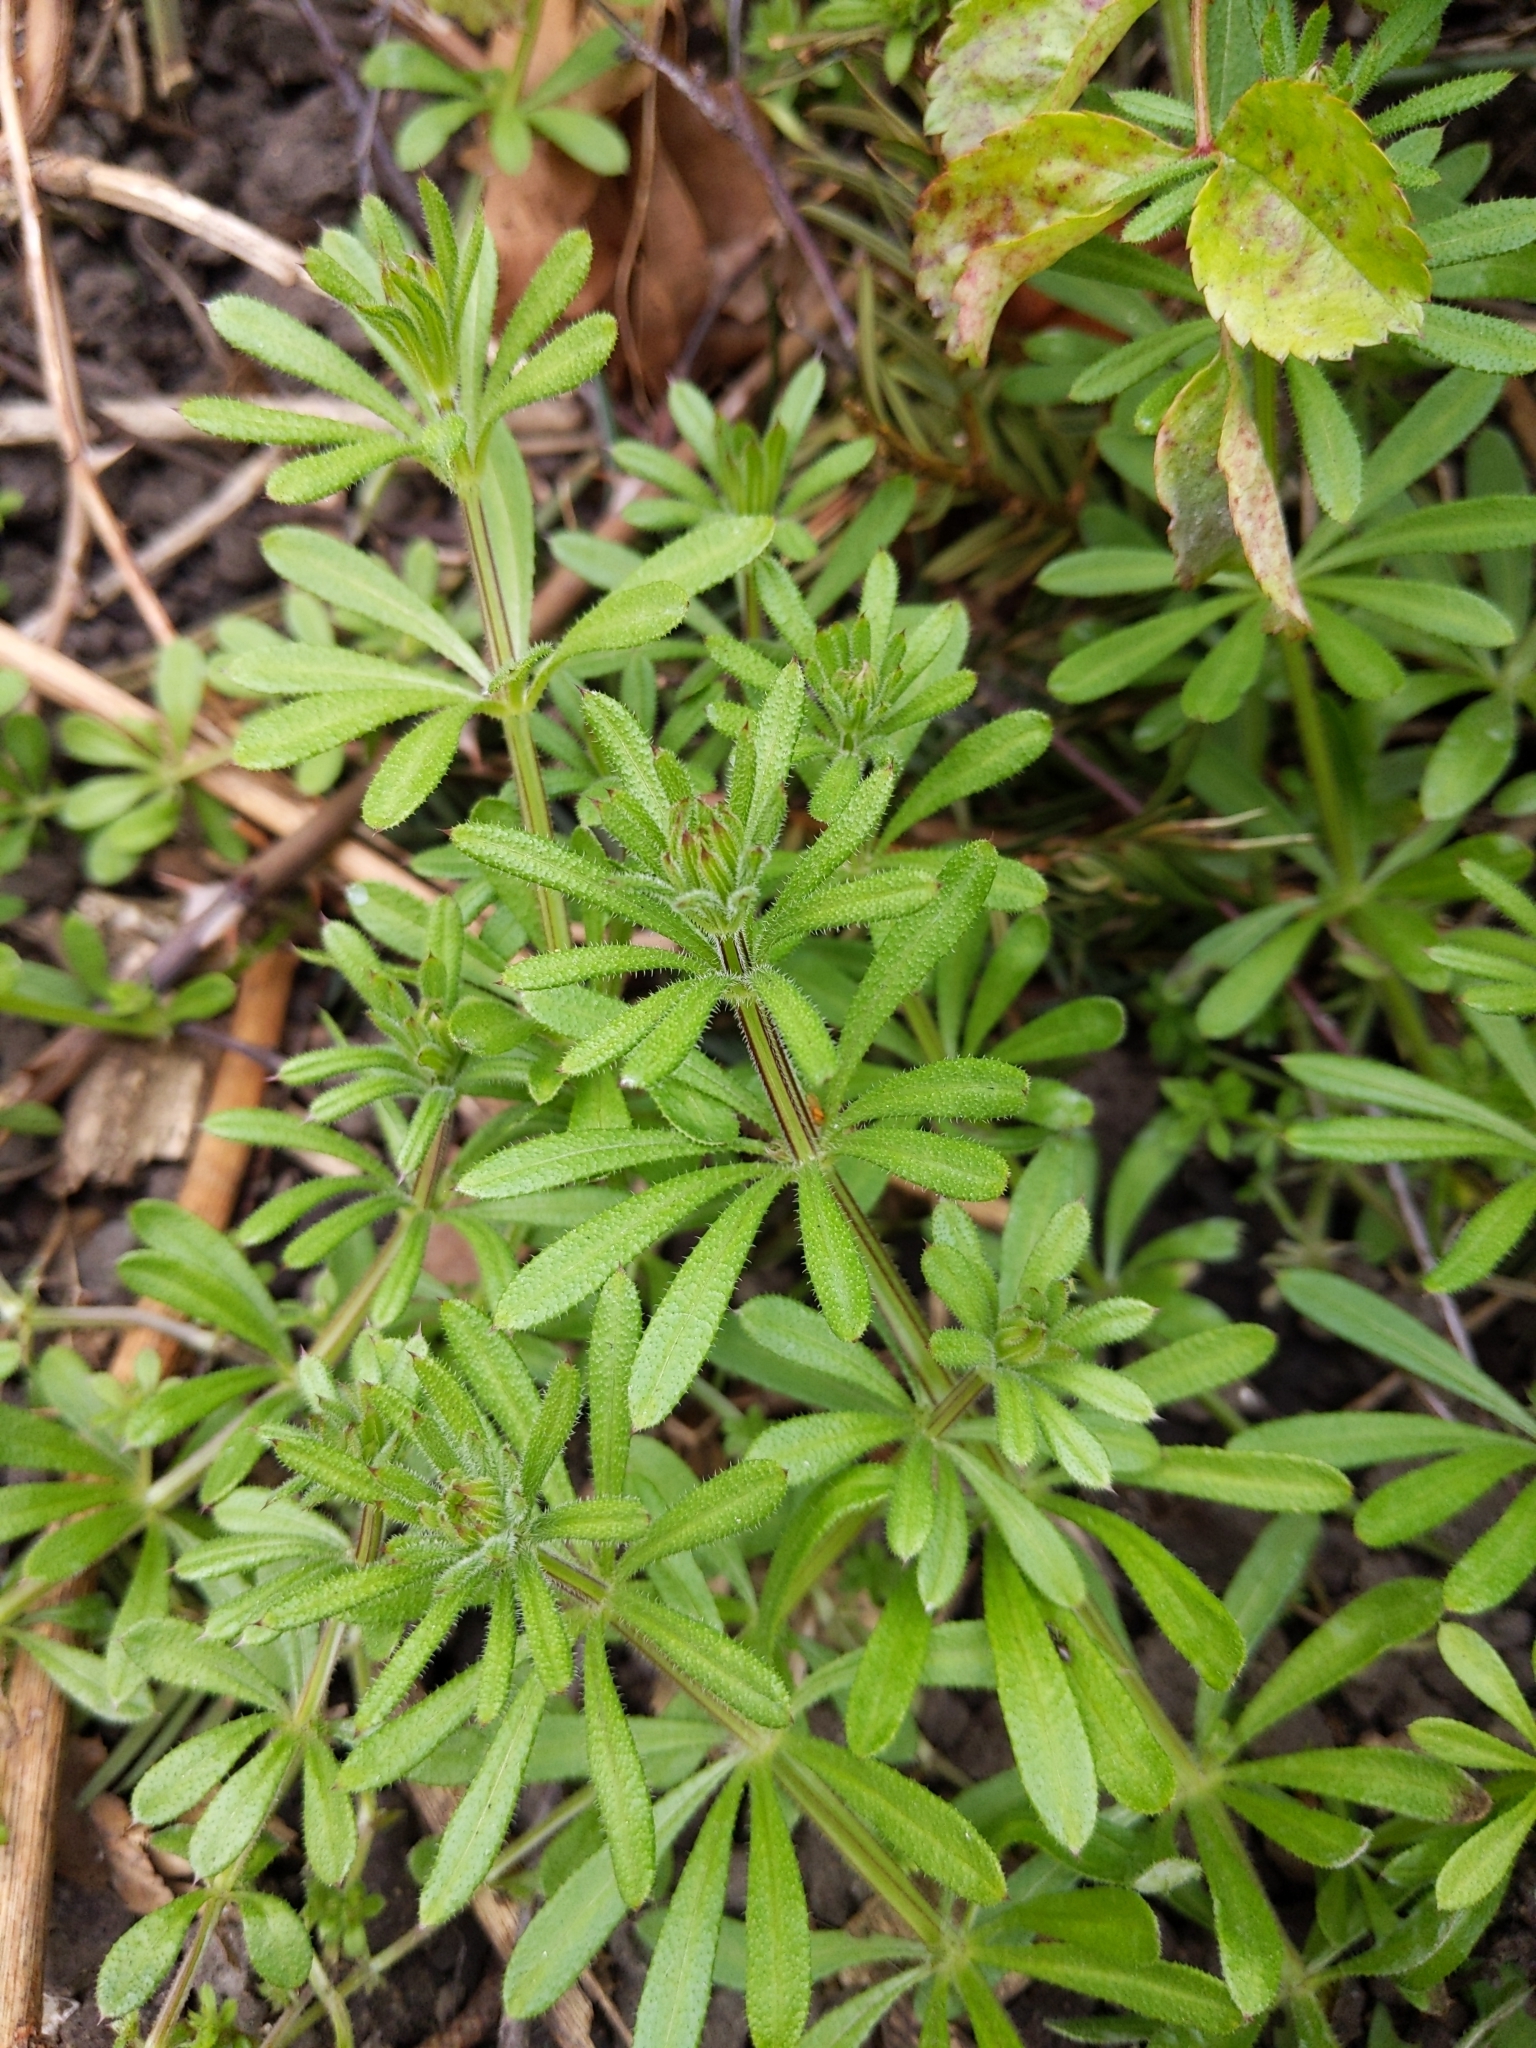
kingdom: Plantae
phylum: Tracheophyta
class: Magnoliopsida
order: Gentianales
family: Rubiaceae
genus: Galium
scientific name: Galium aparine
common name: Cleavers
